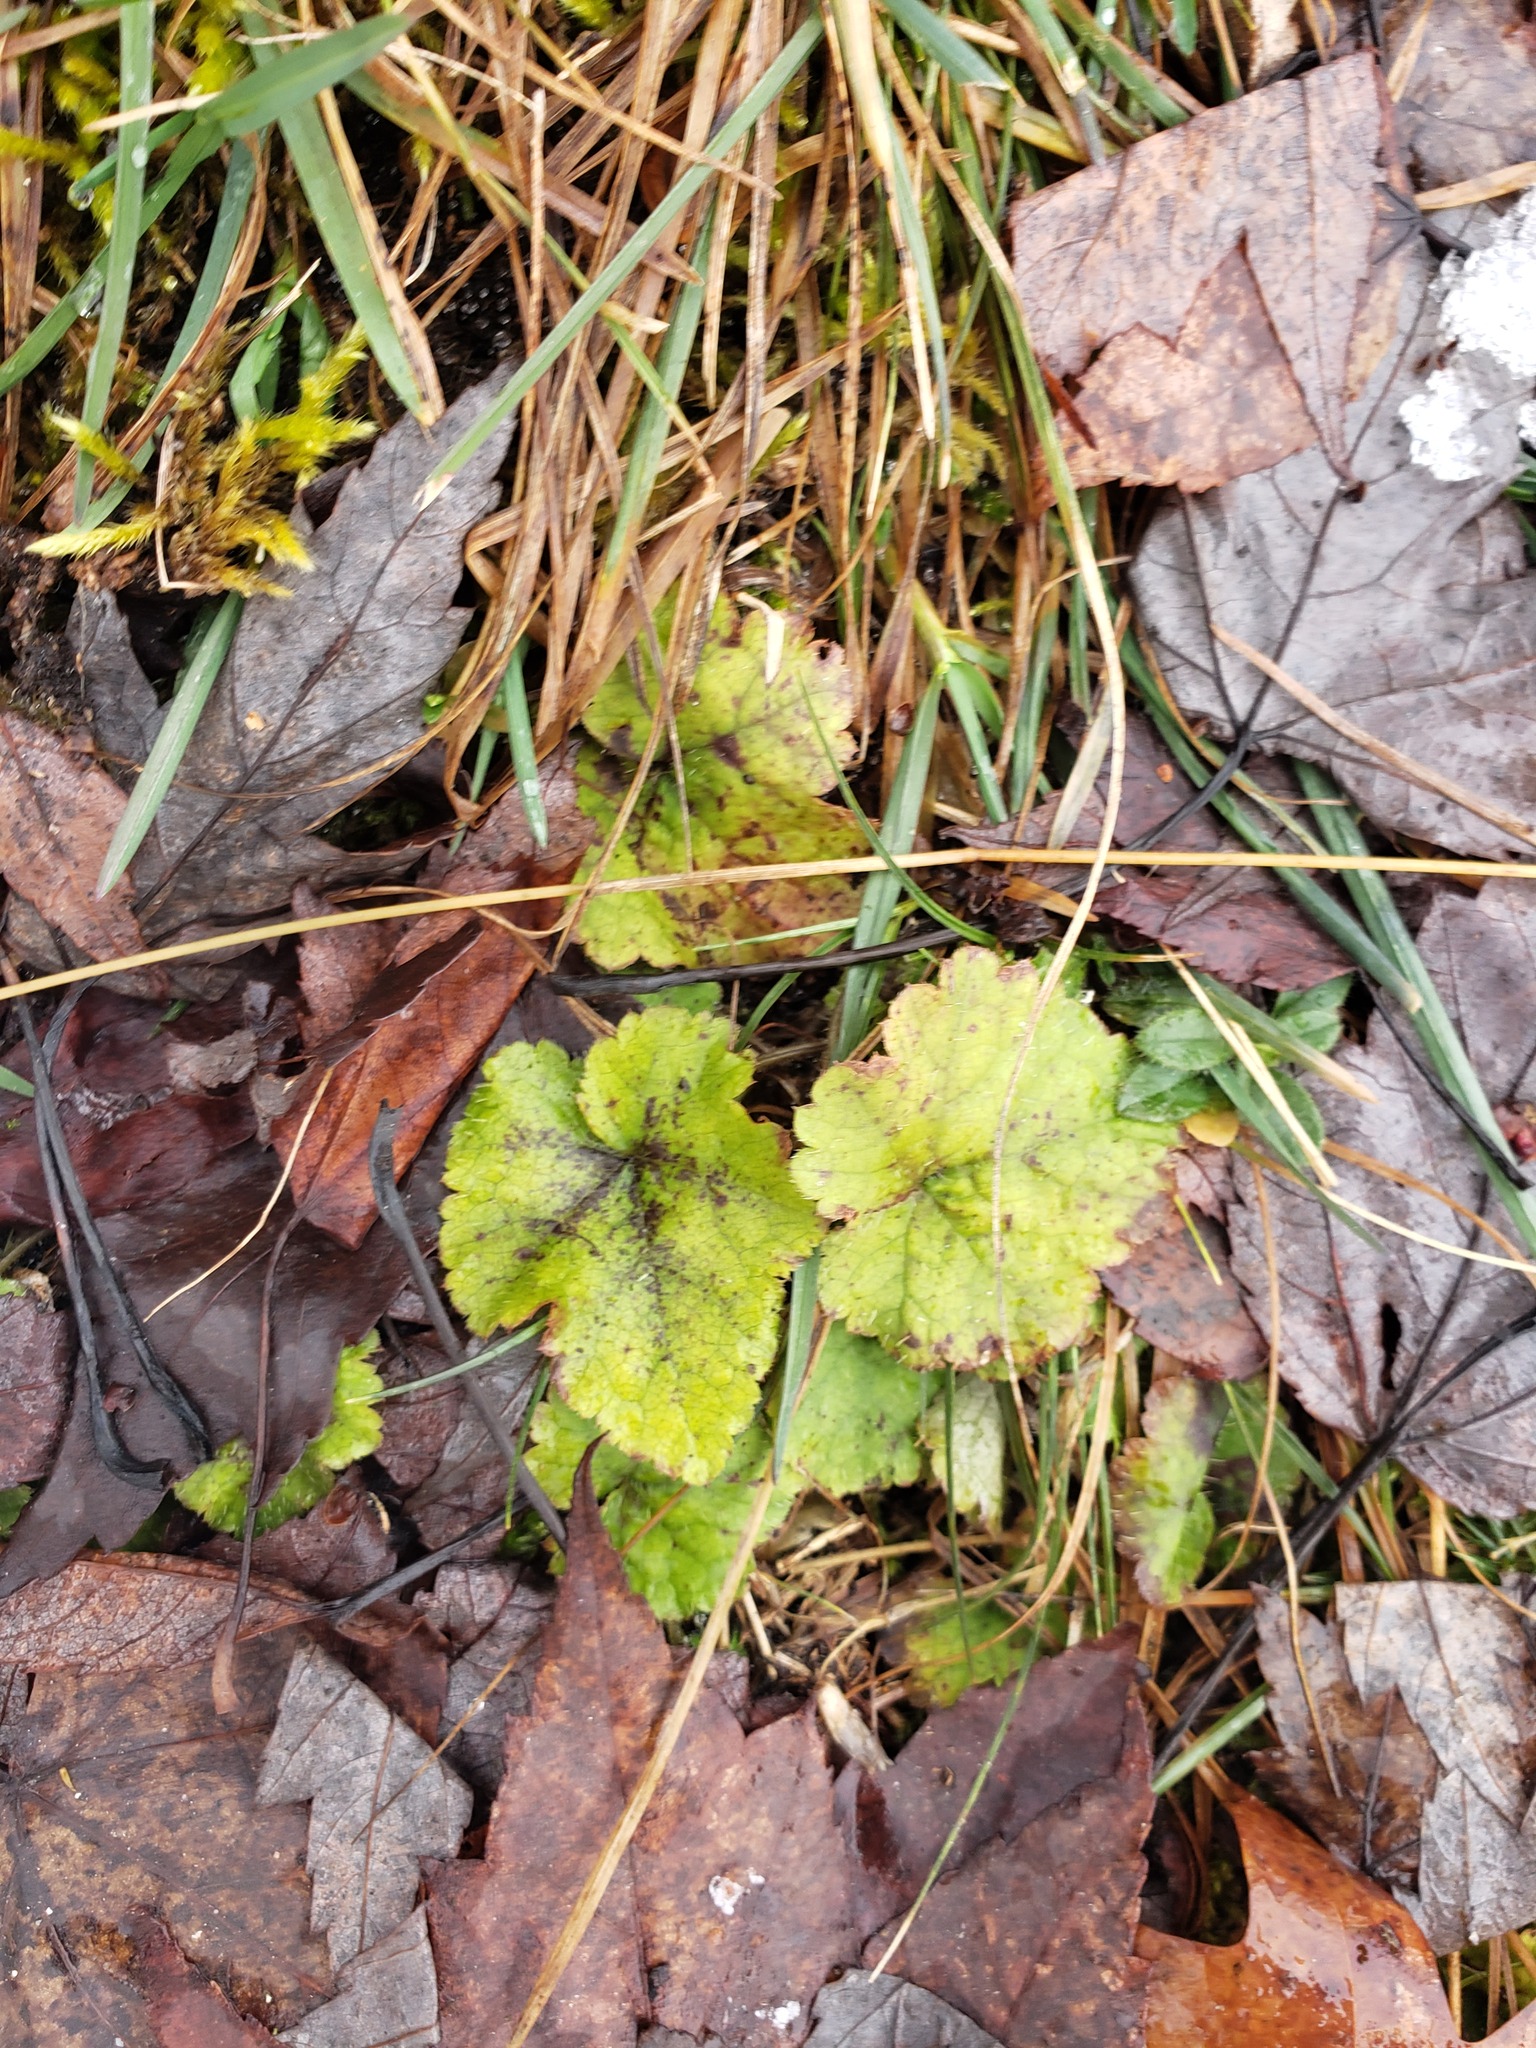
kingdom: Plantae
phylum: Tracheophyta
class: Magnoliopsida
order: Saxifragales
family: Saxifragaceae
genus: Tiarella
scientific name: Tiarella stolonifera
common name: Stoloniferous foamflower
